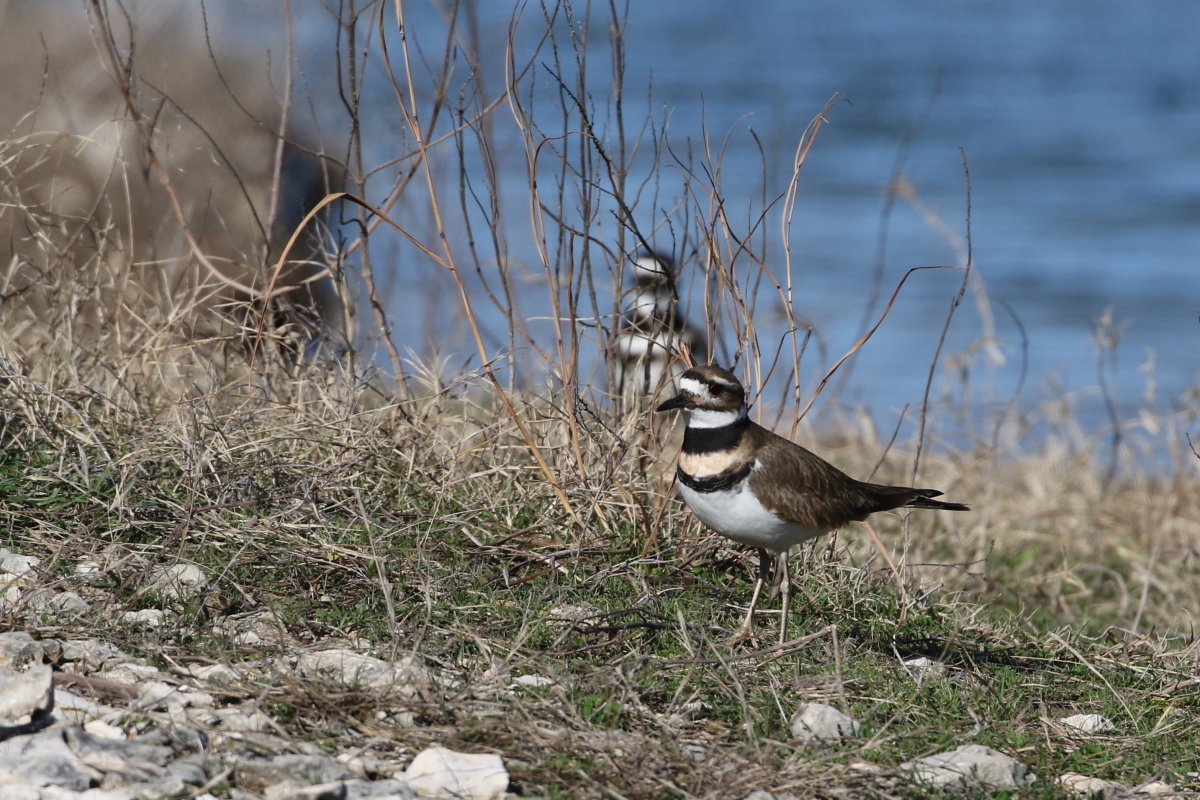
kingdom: Animalia
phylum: Chordata
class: Aves
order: Charadriiformes
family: Charadriidae
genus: Charadrius
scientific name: Charadrius vociferus
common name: Killdeer
